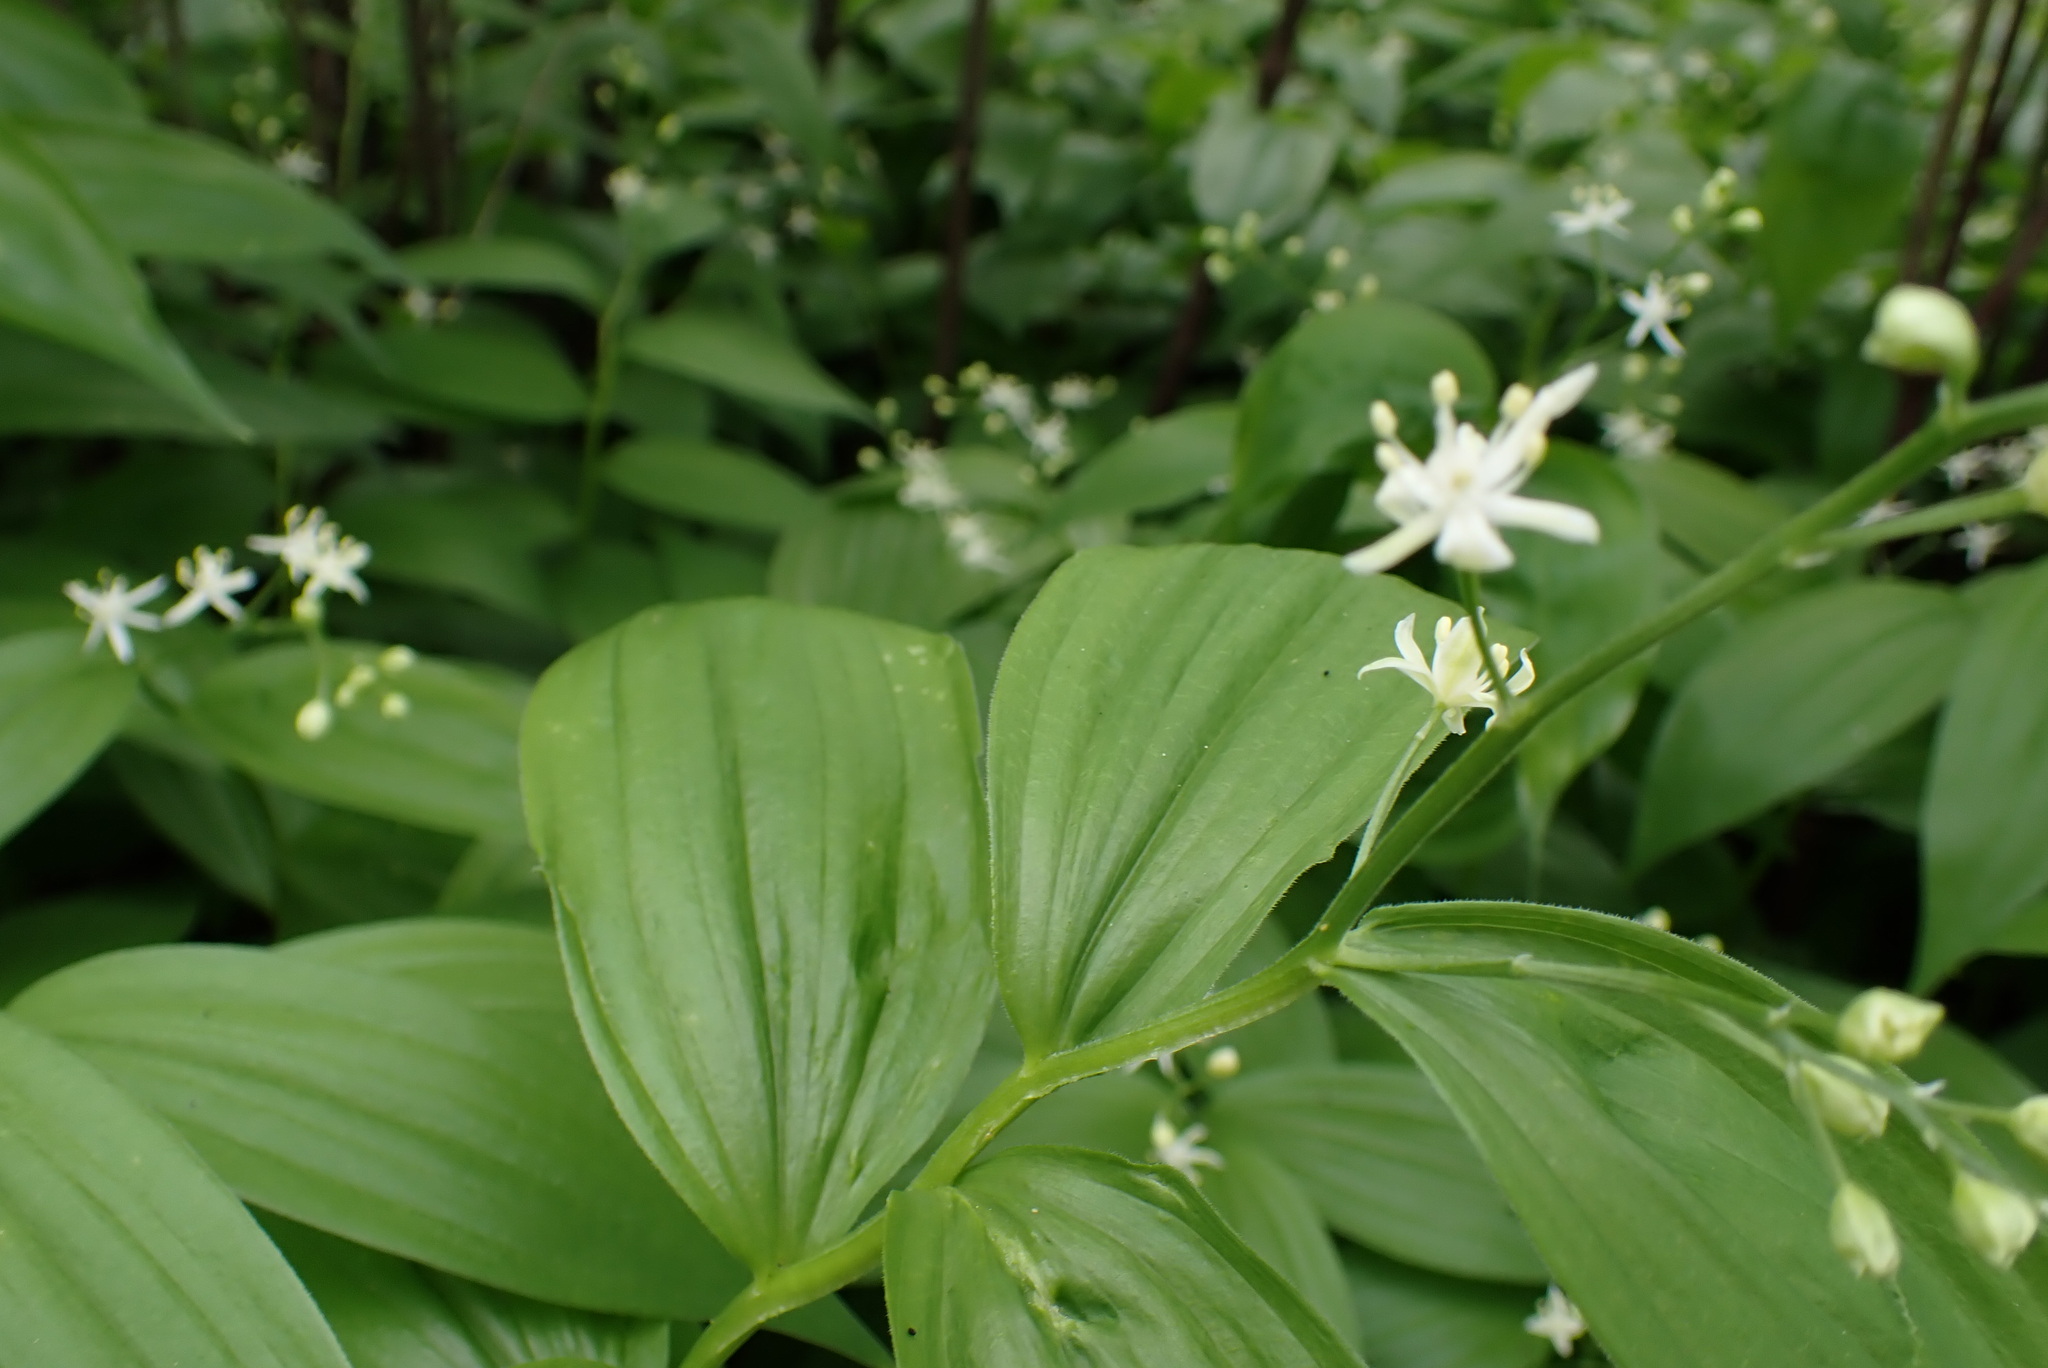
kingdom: Plantae
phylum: Tracheophyta
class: Liliopsida
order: Asparagales
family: Asparagaceae
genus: Maianthemum
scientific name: Maianthemum stellatum
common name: Little false solomon's seal
